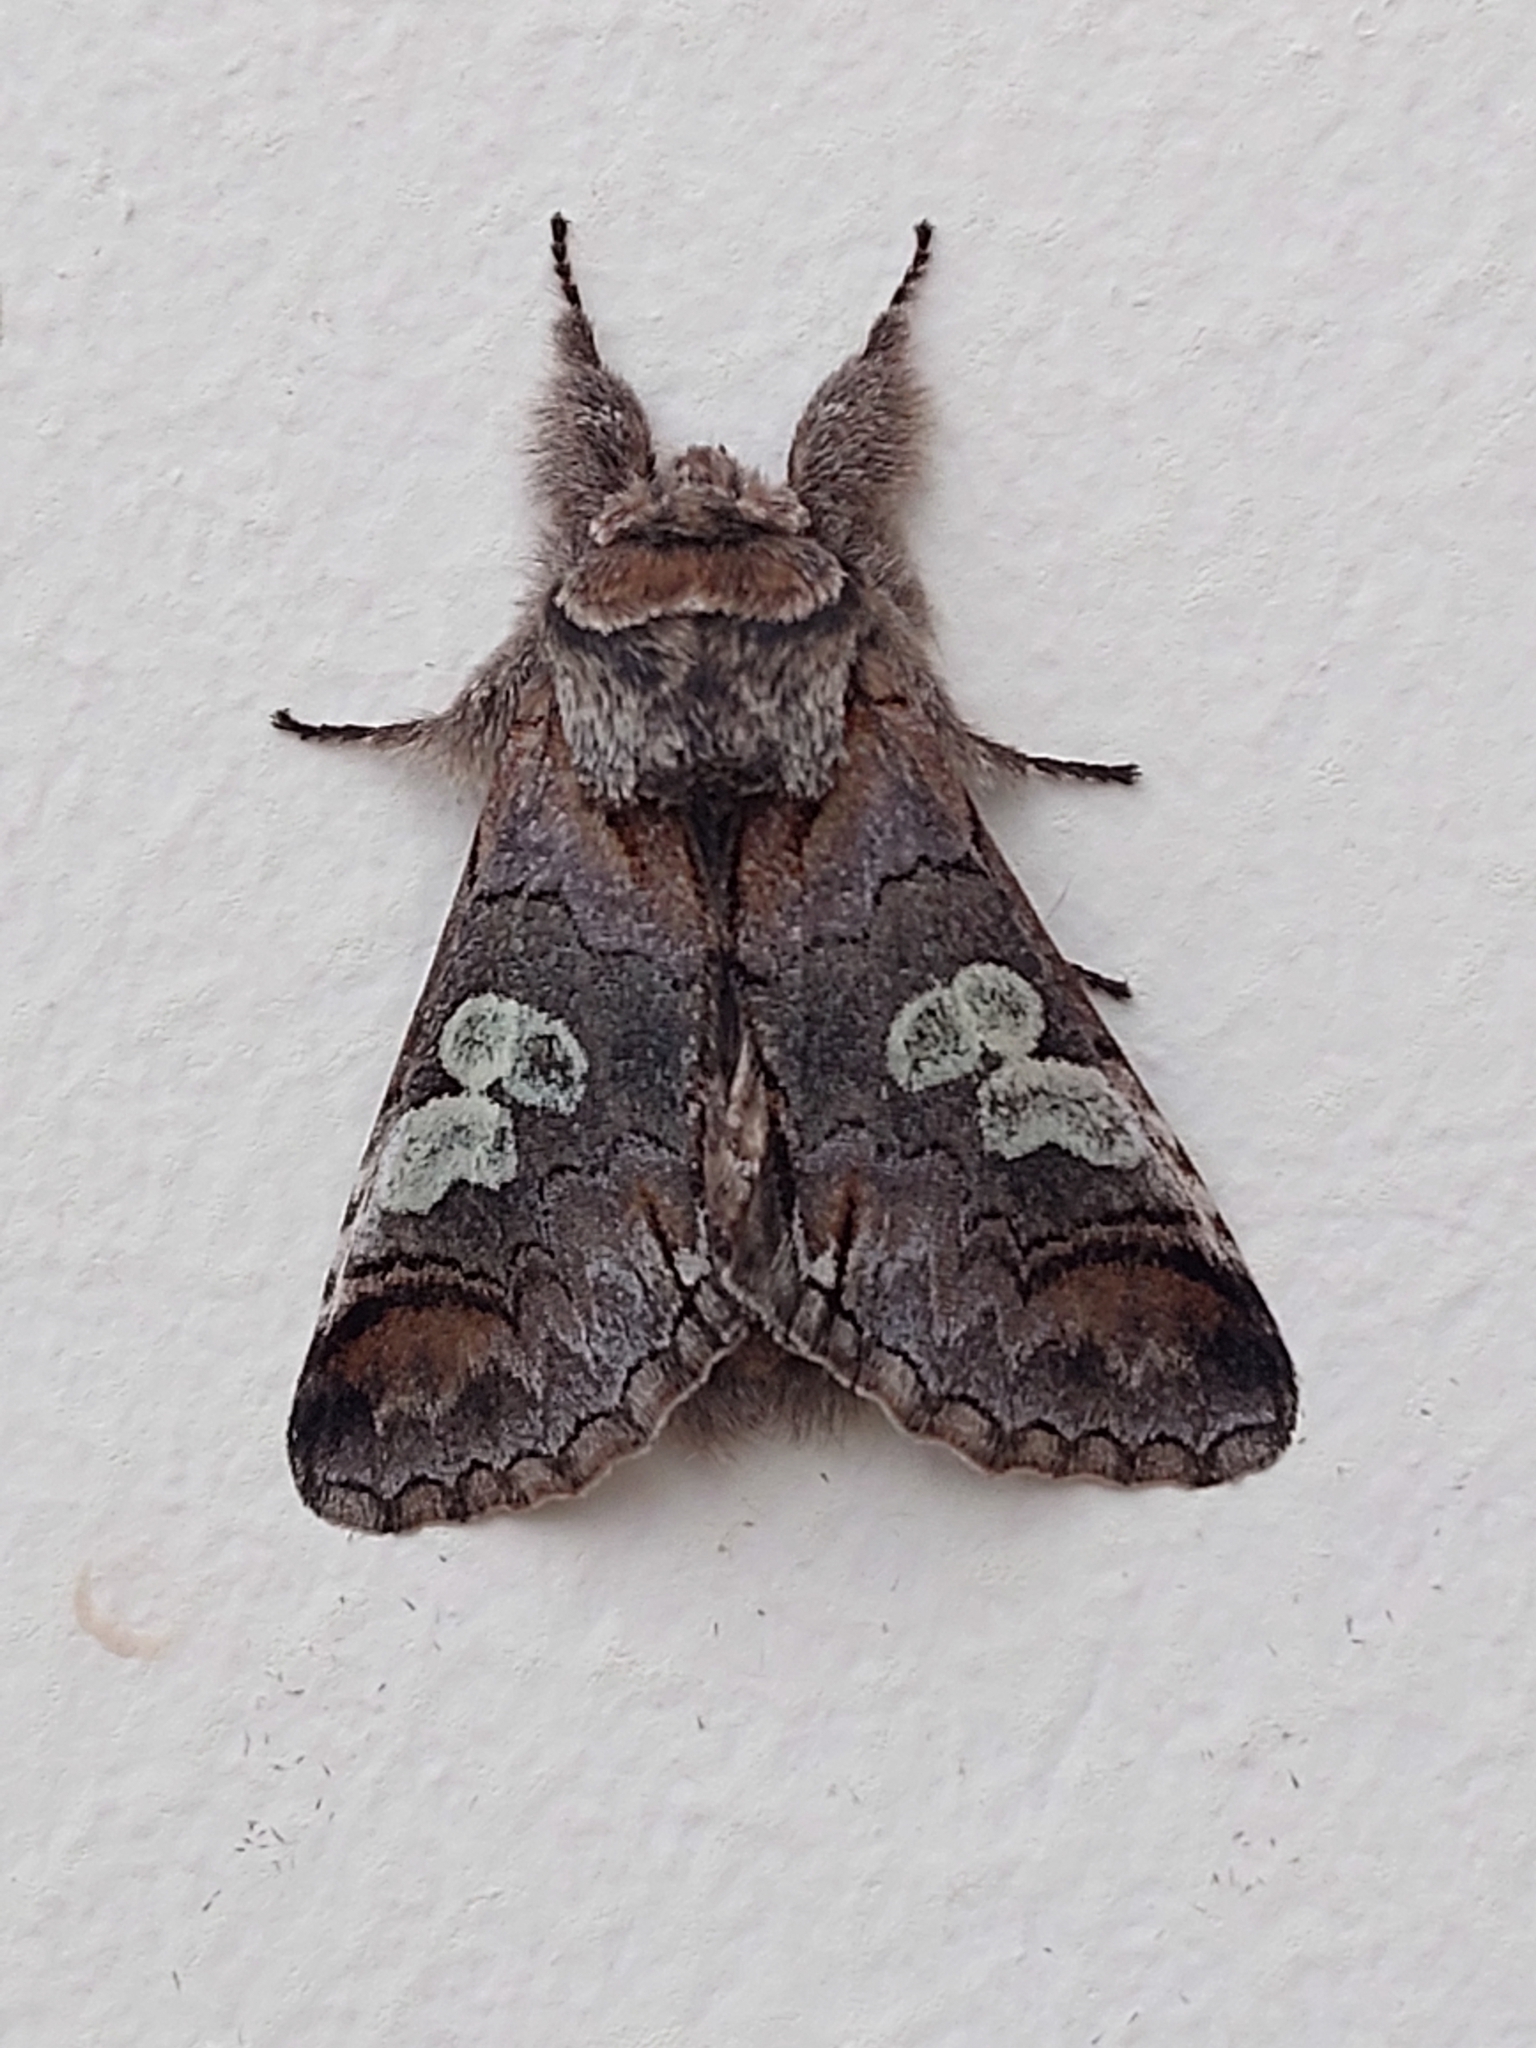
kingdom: Animalia
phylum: Arthropoda
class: Insecta
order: Lepidoptera
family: Noctuidae
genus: Diloba
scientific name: Diloba caeruleocephala
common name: Figure of eight
